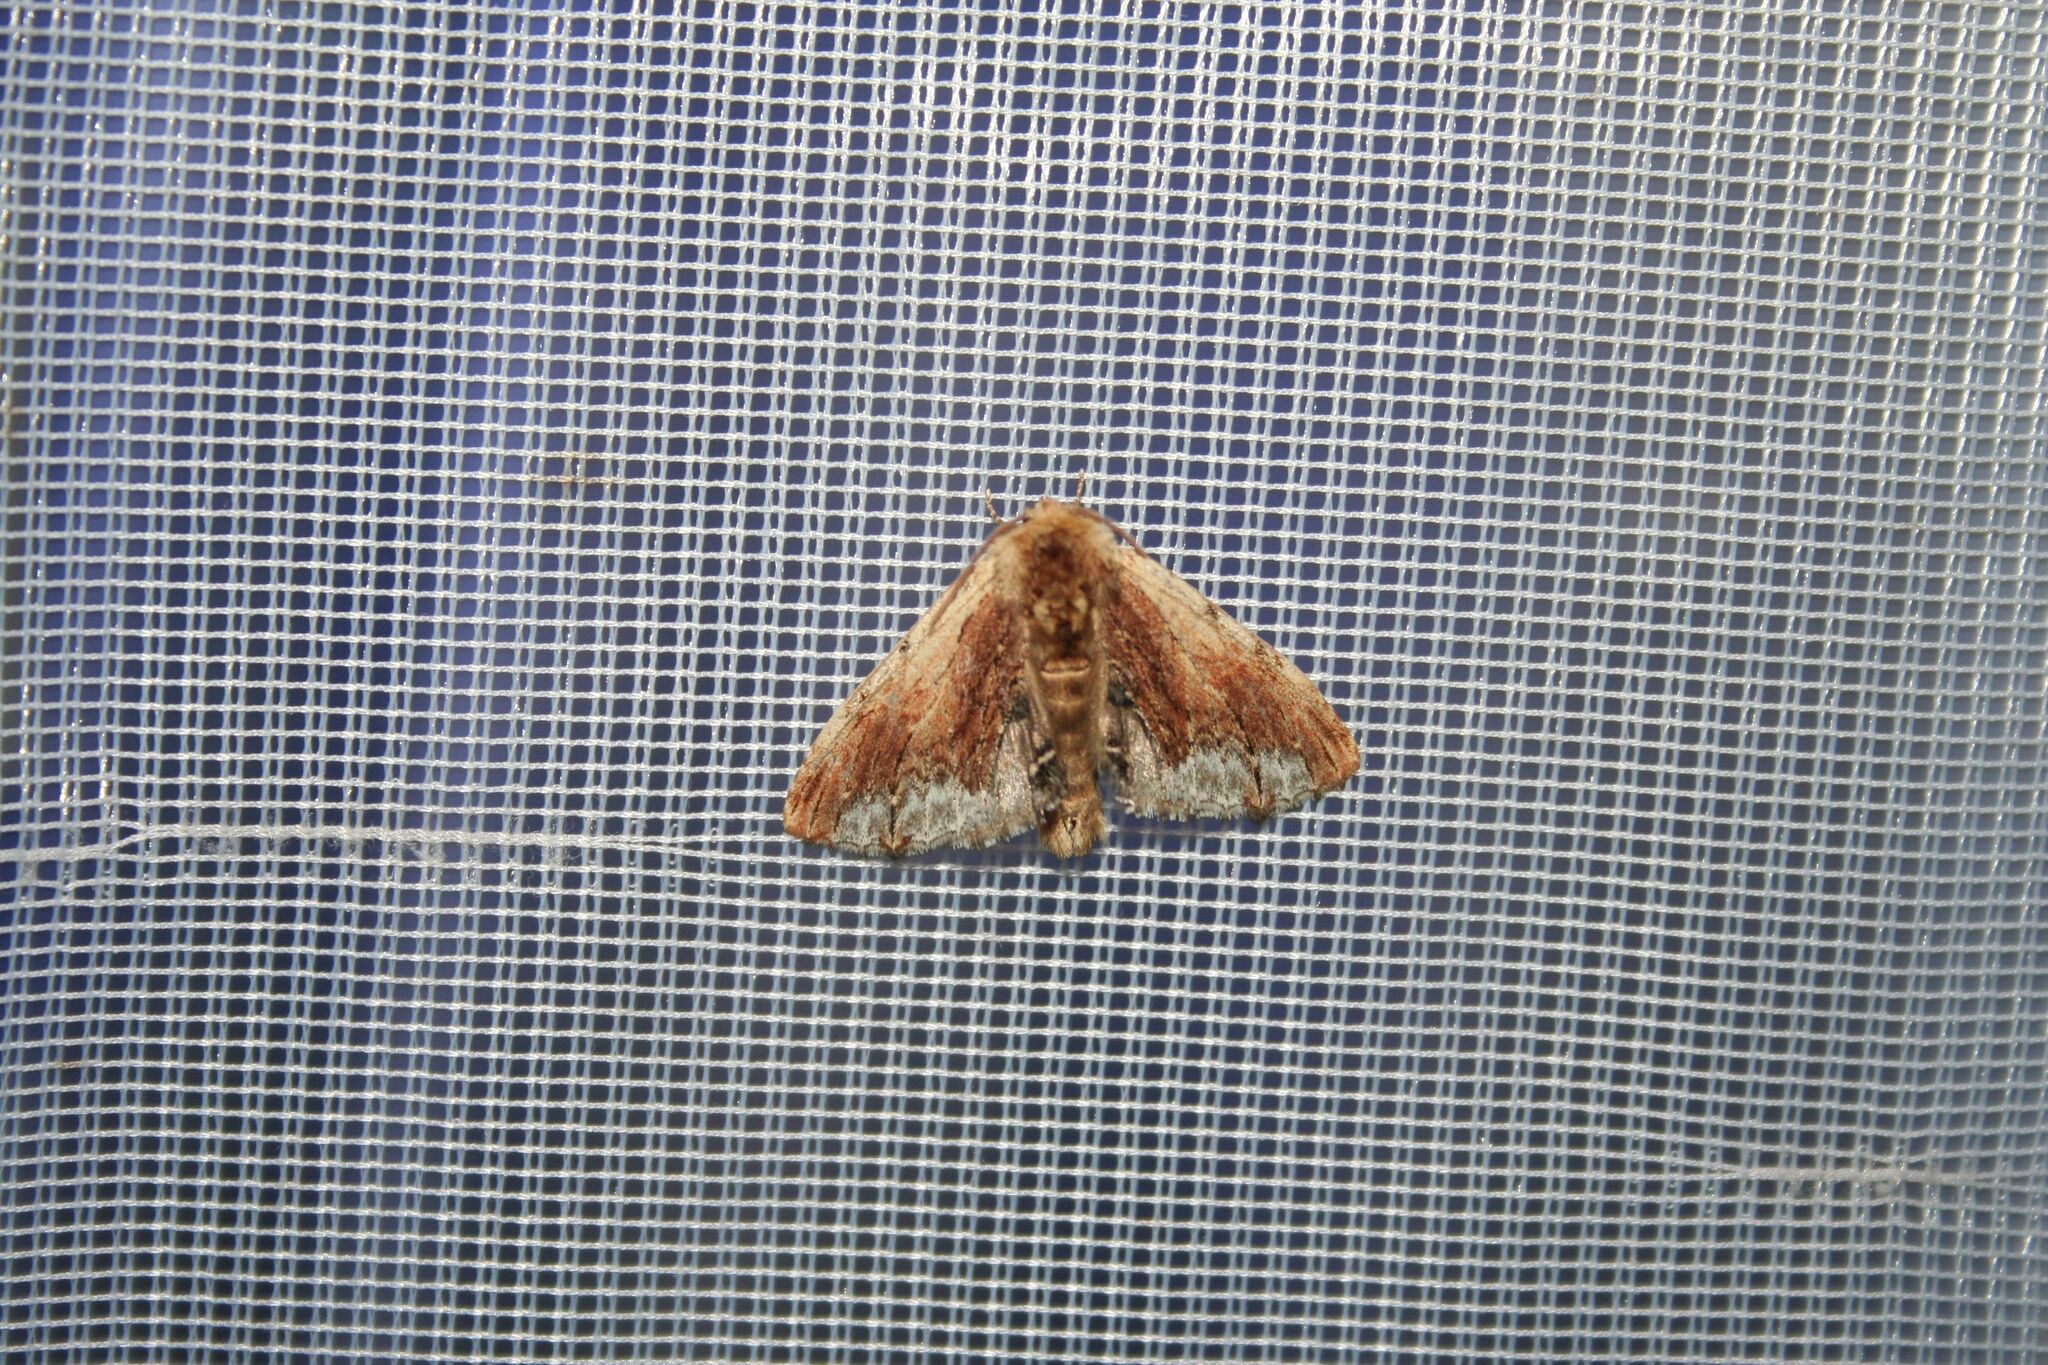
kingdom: Animalia
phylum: Arthropoda
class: Insecta
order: Lepidoptera
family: Notodontidae
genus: Ptilodon
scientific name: Ptilodon cucullina
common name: Maple prominent
